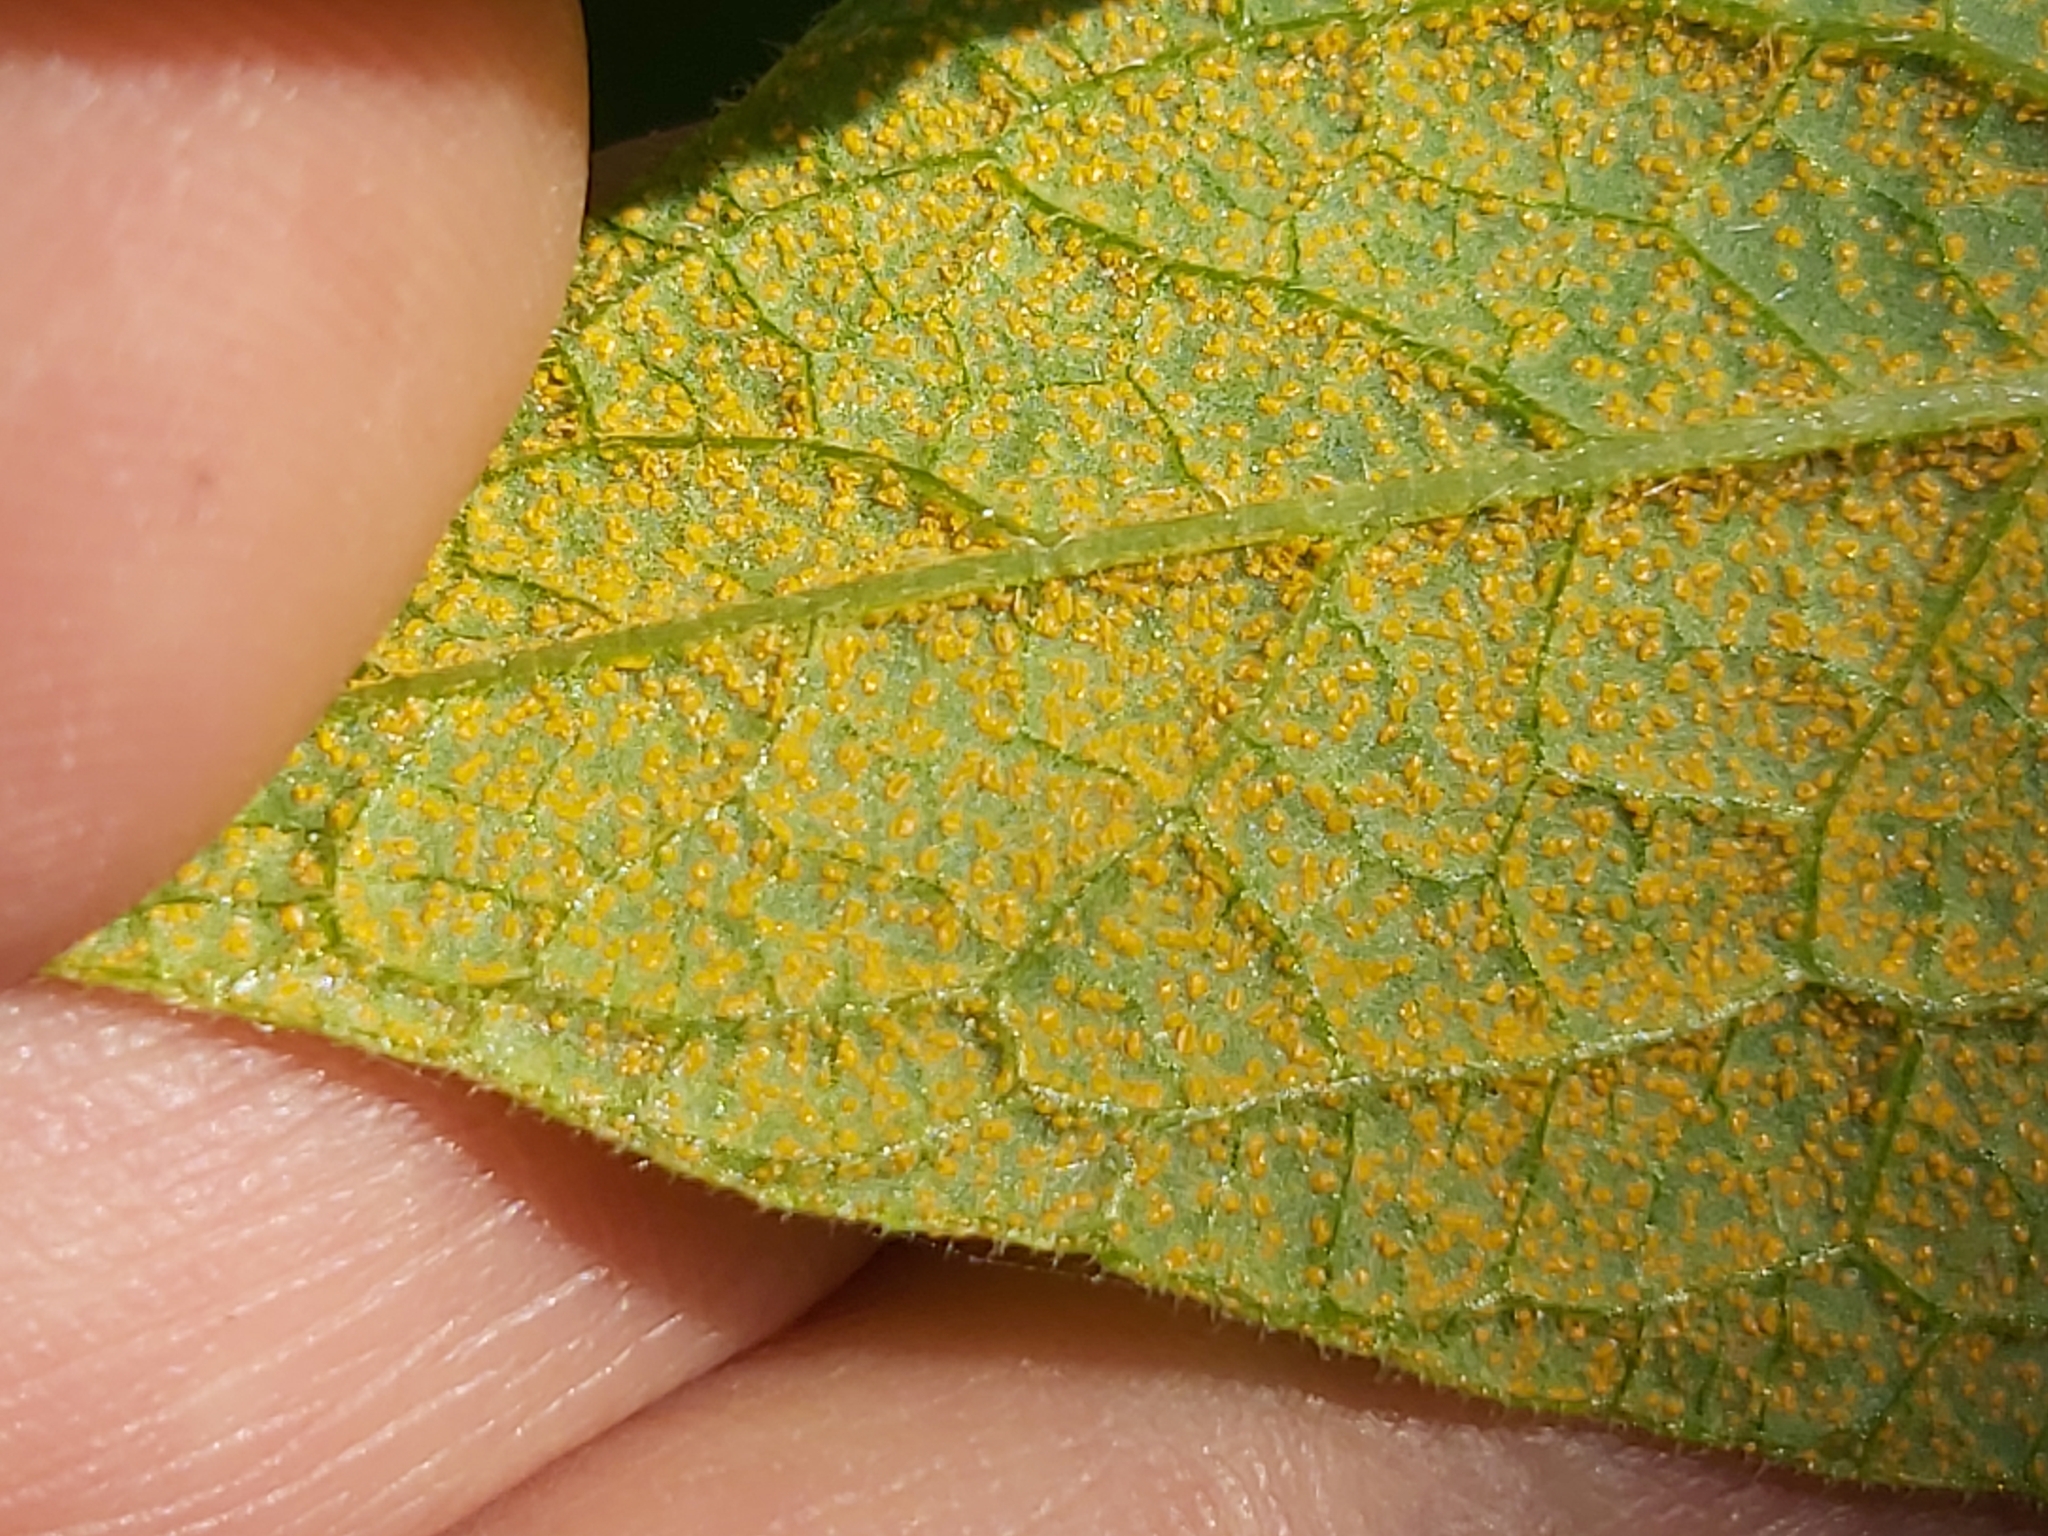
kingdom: Fungi
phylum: Basidiomycota
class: Pucciniomycetes
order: Pucciniales
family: Pucciniastraceae
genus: Pucciniastrum
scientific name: Pucciniastrum symphyti
